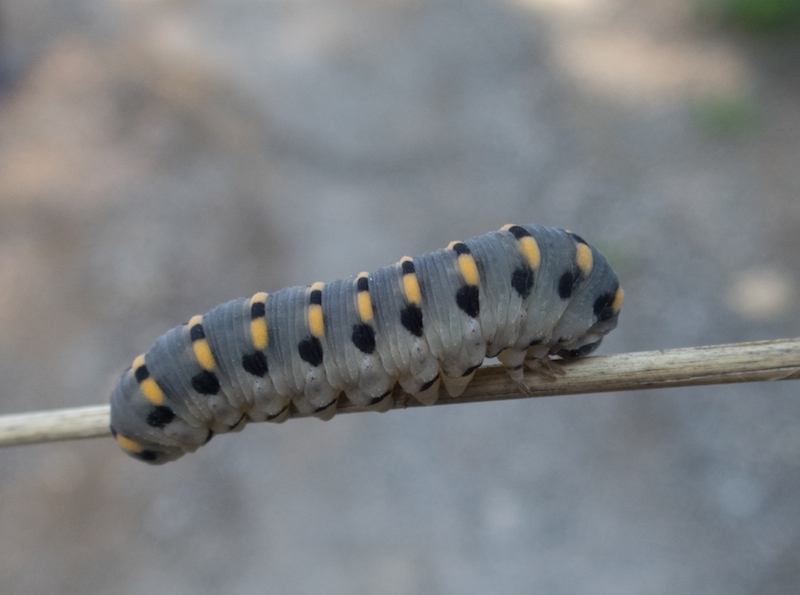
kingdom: Animalia
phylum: Arthropoda
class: Insecta
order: Hymenoptera
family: Cimbicidae
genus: Abia
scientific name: Abia nitens
